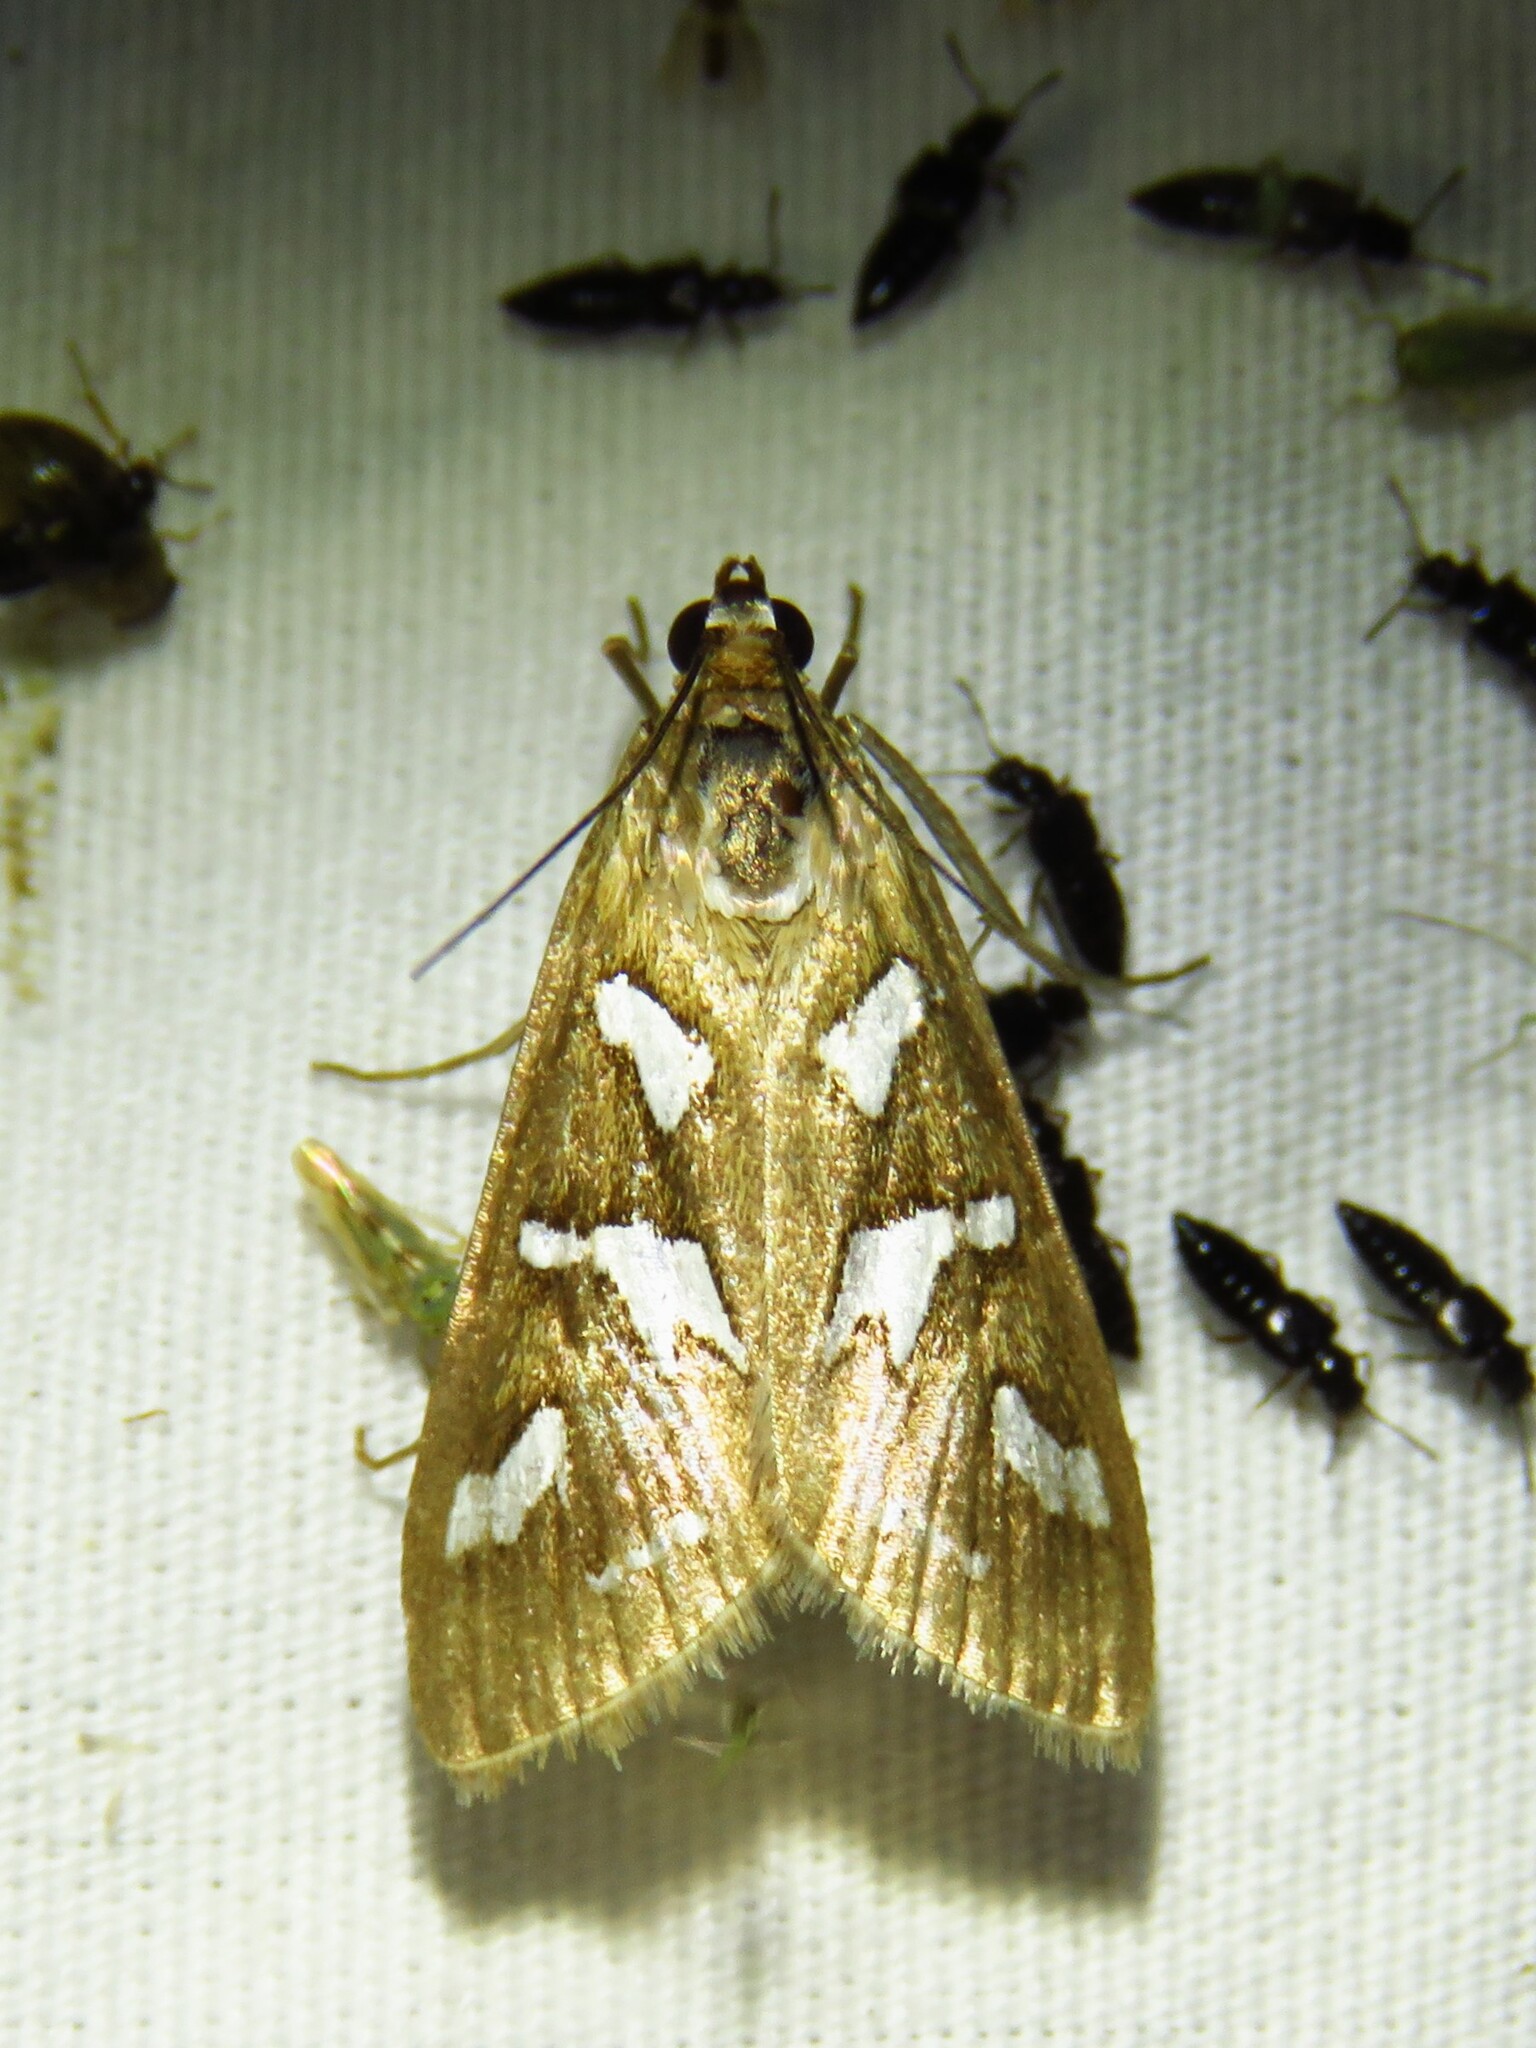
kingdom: Animalia
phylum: Arthropoda
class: Insecta
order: Lepidoptera
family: Crambidae
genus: Diastictis
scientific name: Diastictis fracturalis
